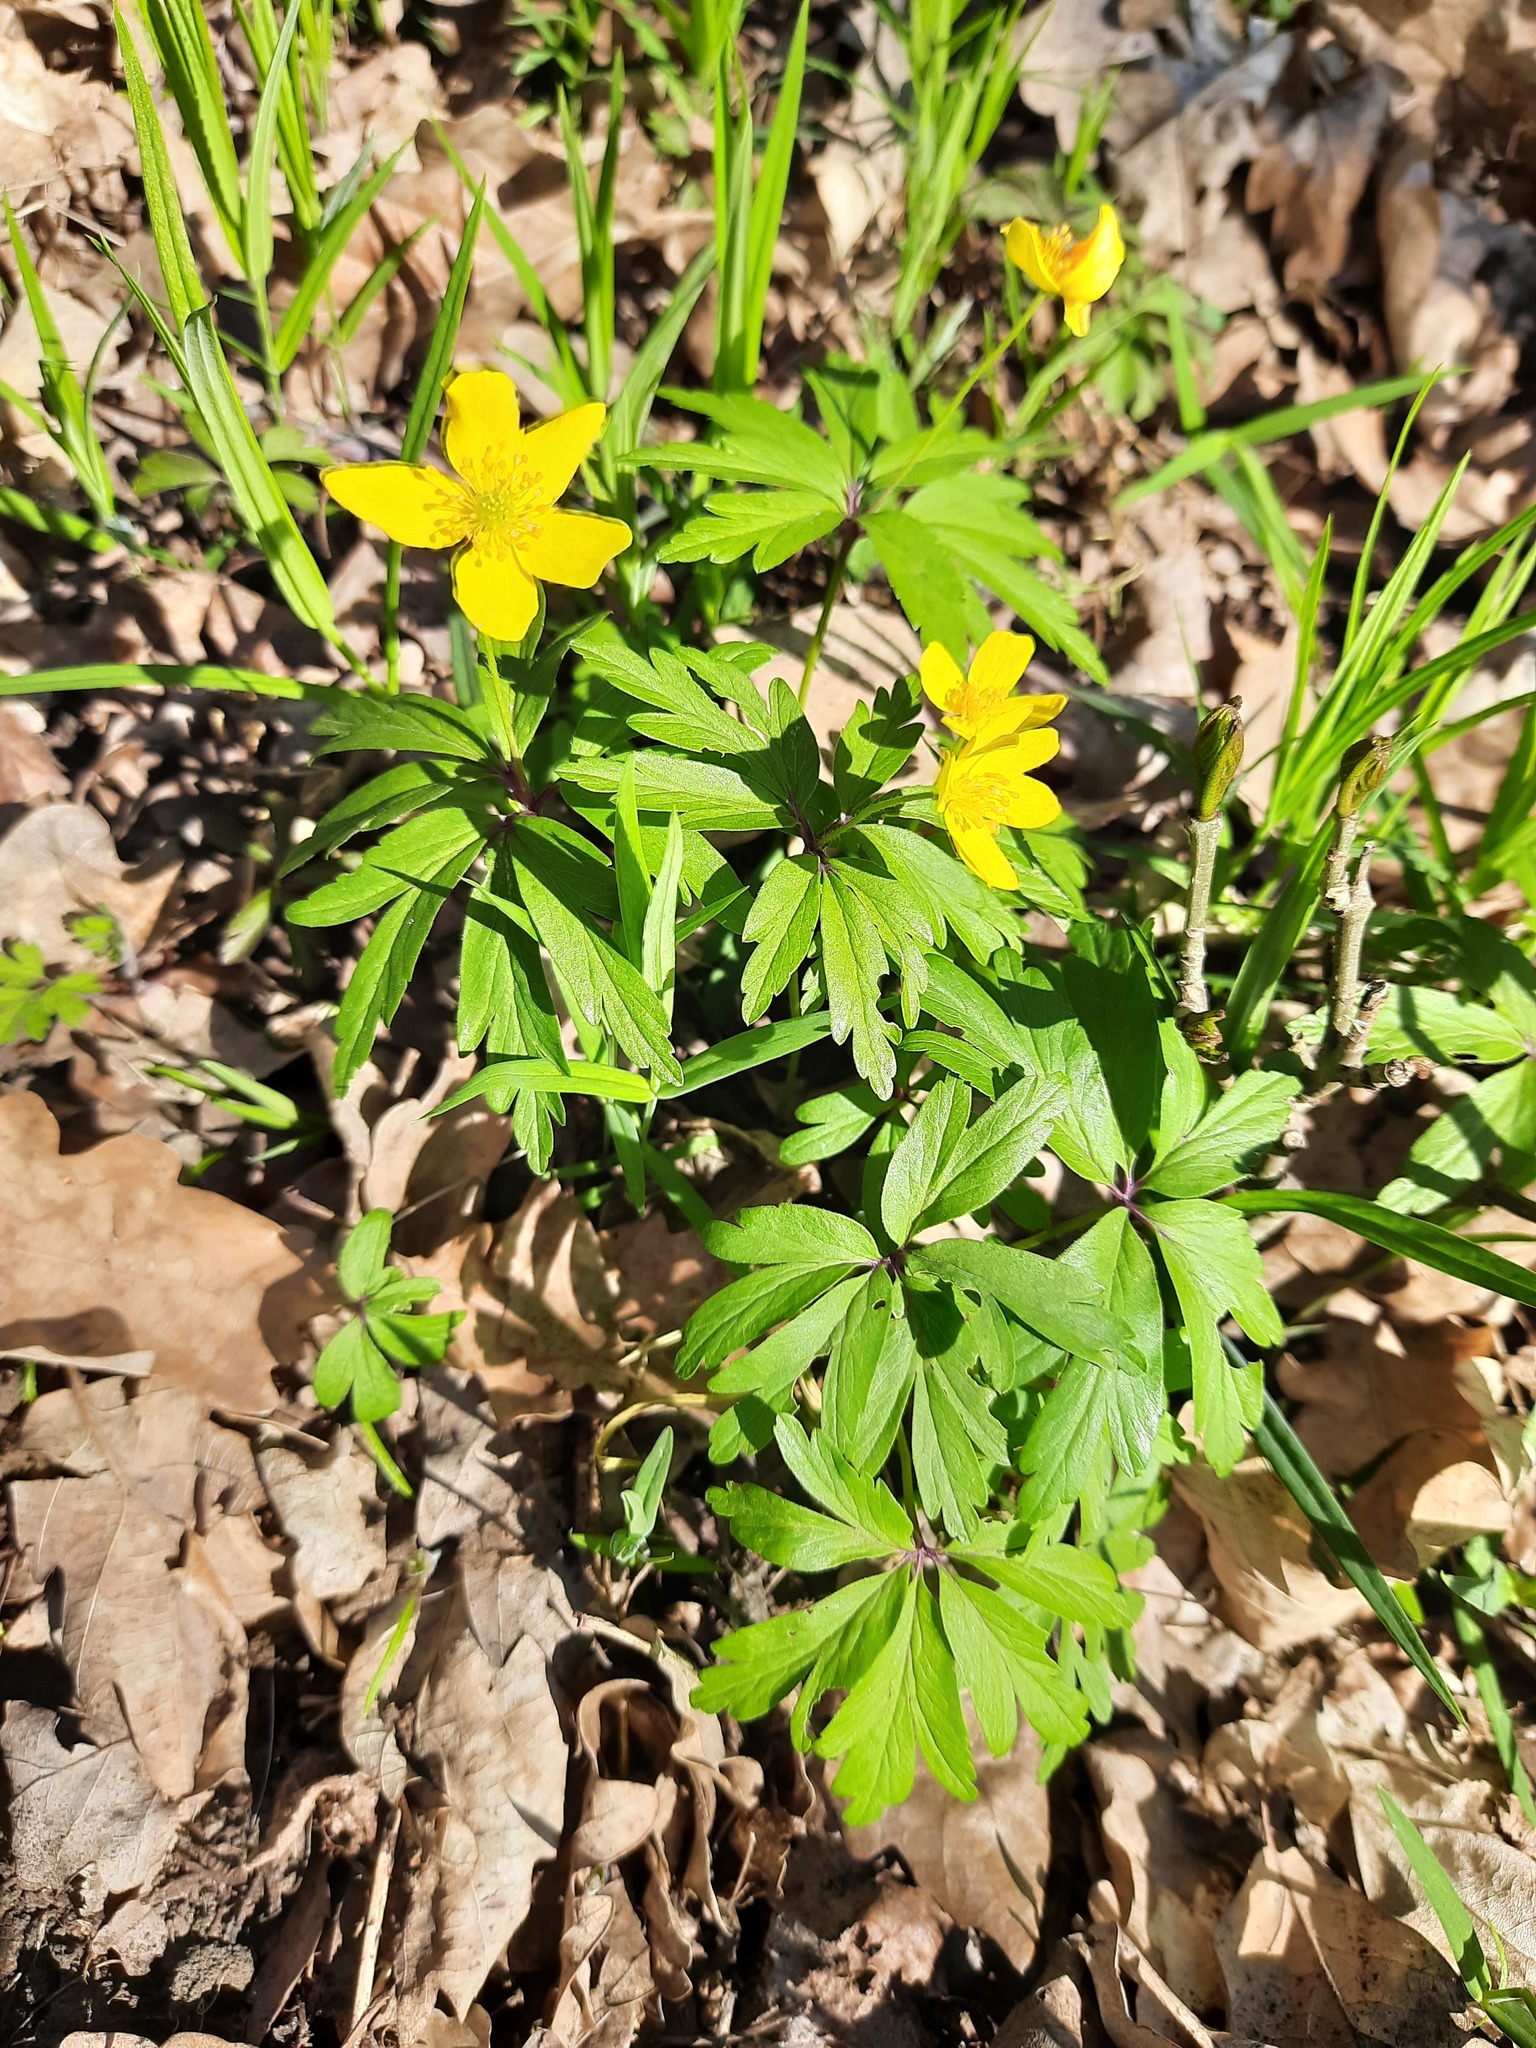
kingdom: Plantae
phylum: Tracheophyta
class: Magnoliopsida
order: Ranunculales
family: Ranunculaceae
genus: Anemone
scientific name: Anemone ranunculoides
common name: Yellow anemone
